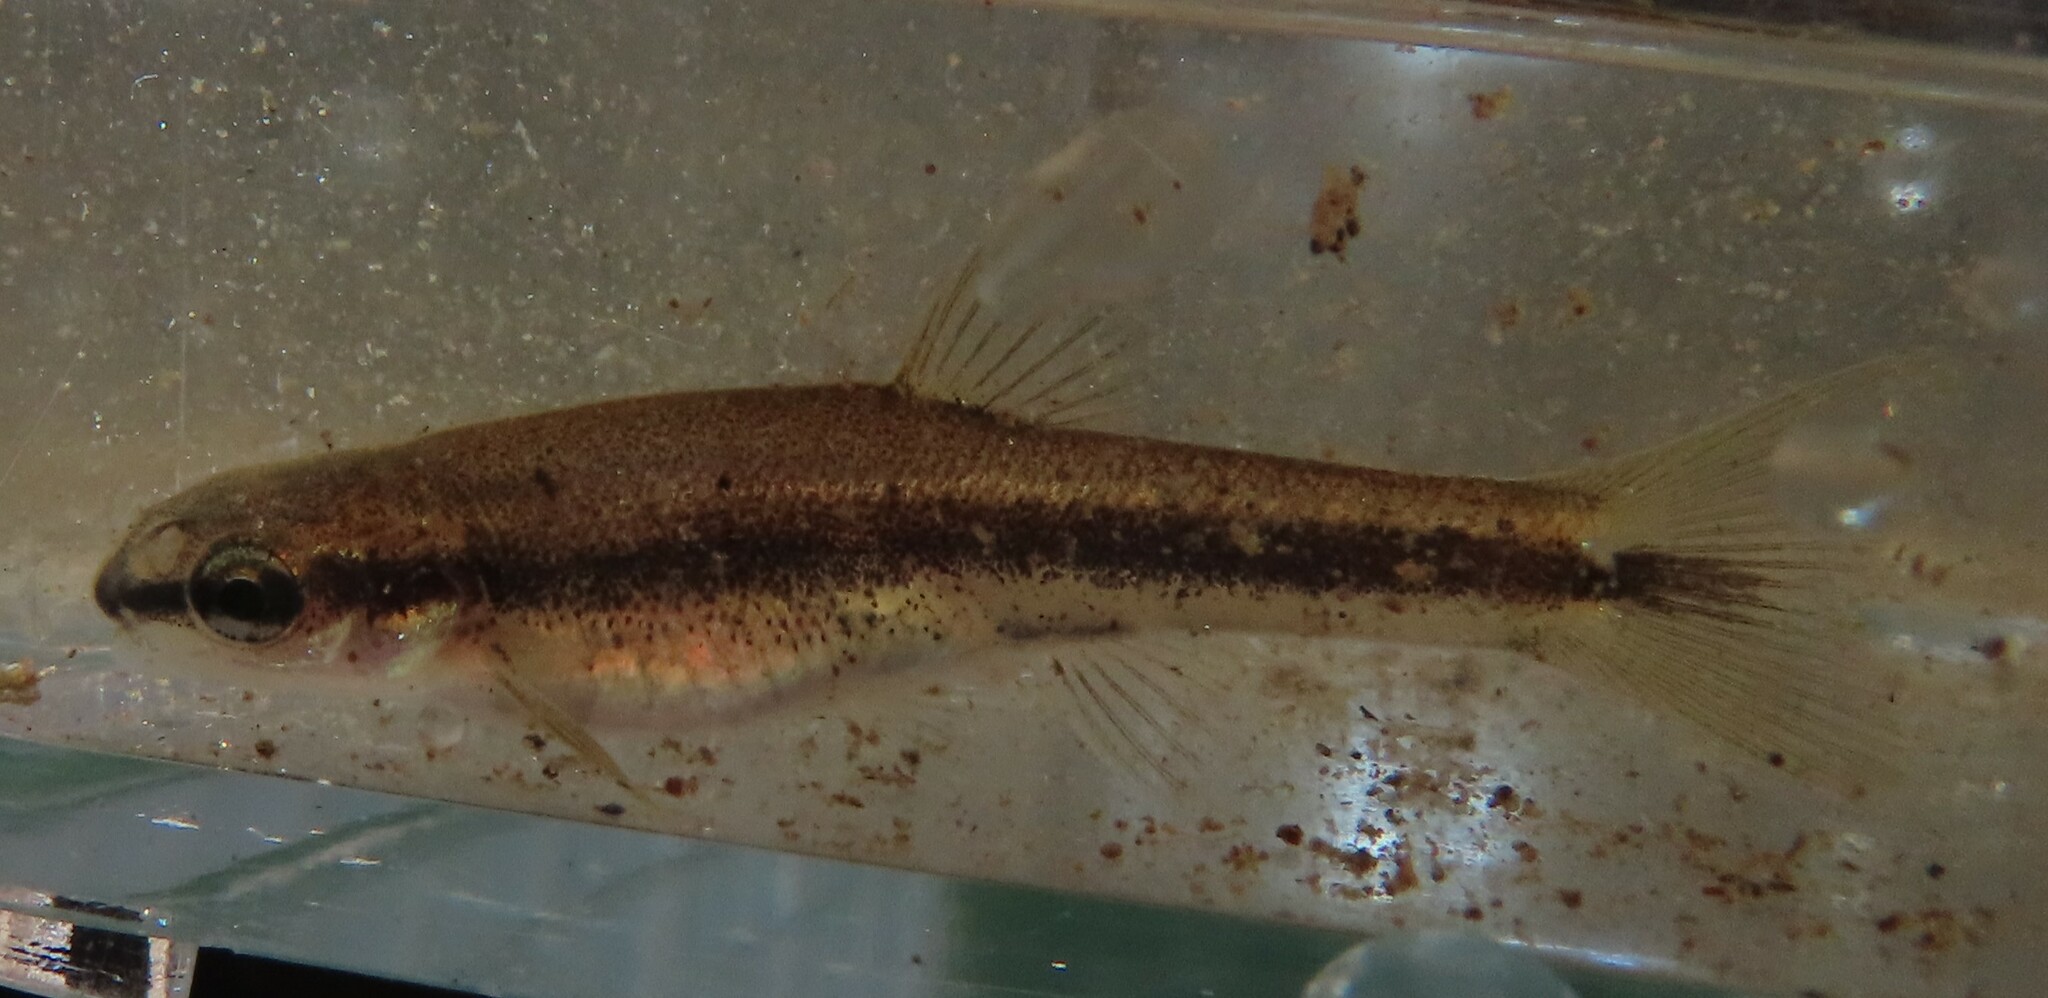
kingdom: Animalia
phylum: Chordata
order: Cypriniformes
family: Cyprinidae
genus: Rhinichthys
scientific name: Rhinichthys atratulus
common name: Eastern blacknose dace
